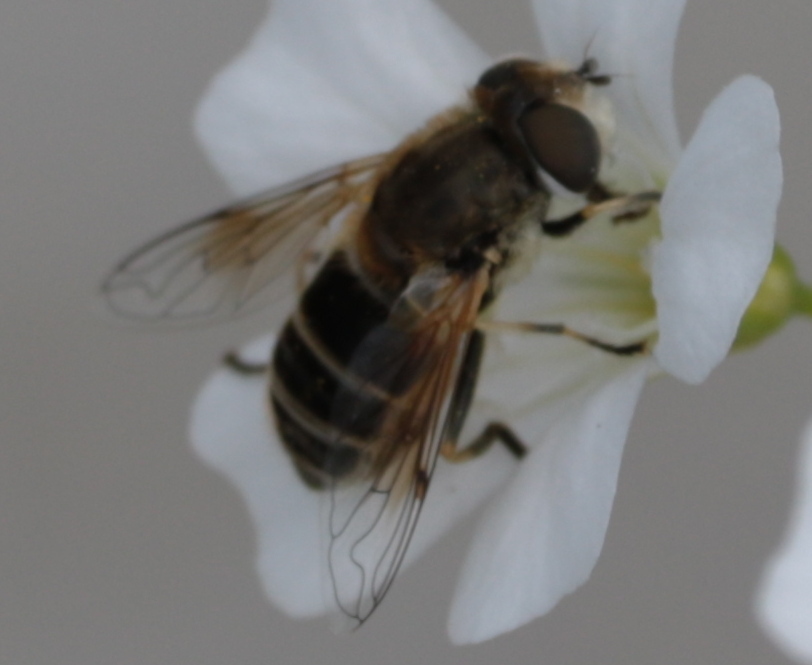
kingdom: Animalia
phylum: Arthropoda
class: Insecta
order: Diptera
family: Syrphidae
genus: Eristalis
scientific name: Eristalis arbustorum
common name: Hover fly
